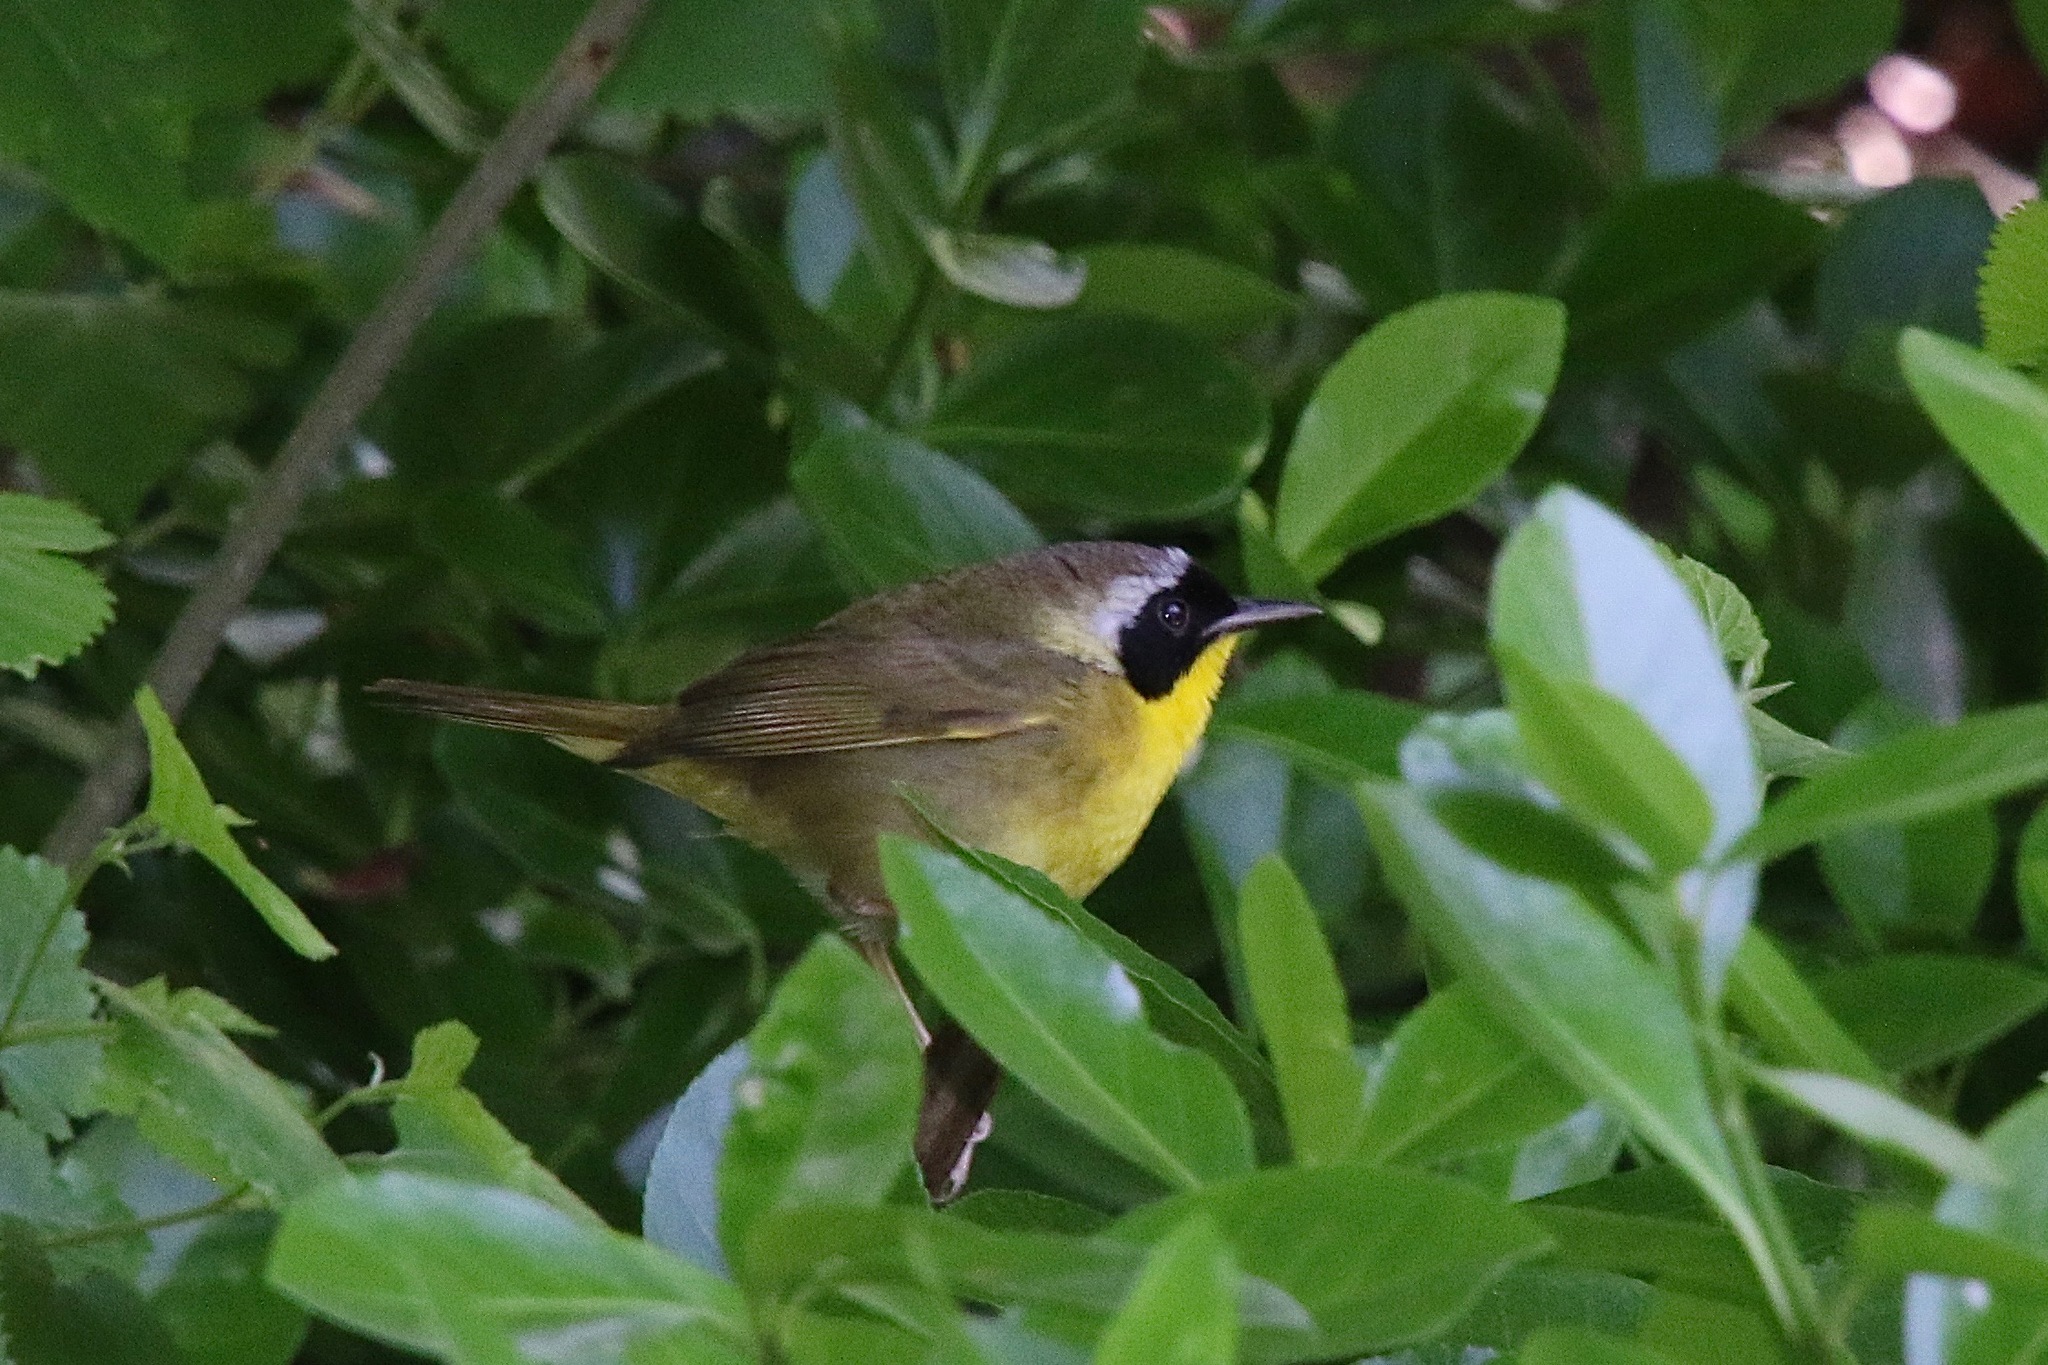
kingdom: Animalia
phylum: Chordata
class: Aves
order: Passeriformes
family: Parulidae
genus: Geothlypis
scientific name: Geothlypis trichas
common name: Common yellowthroat
